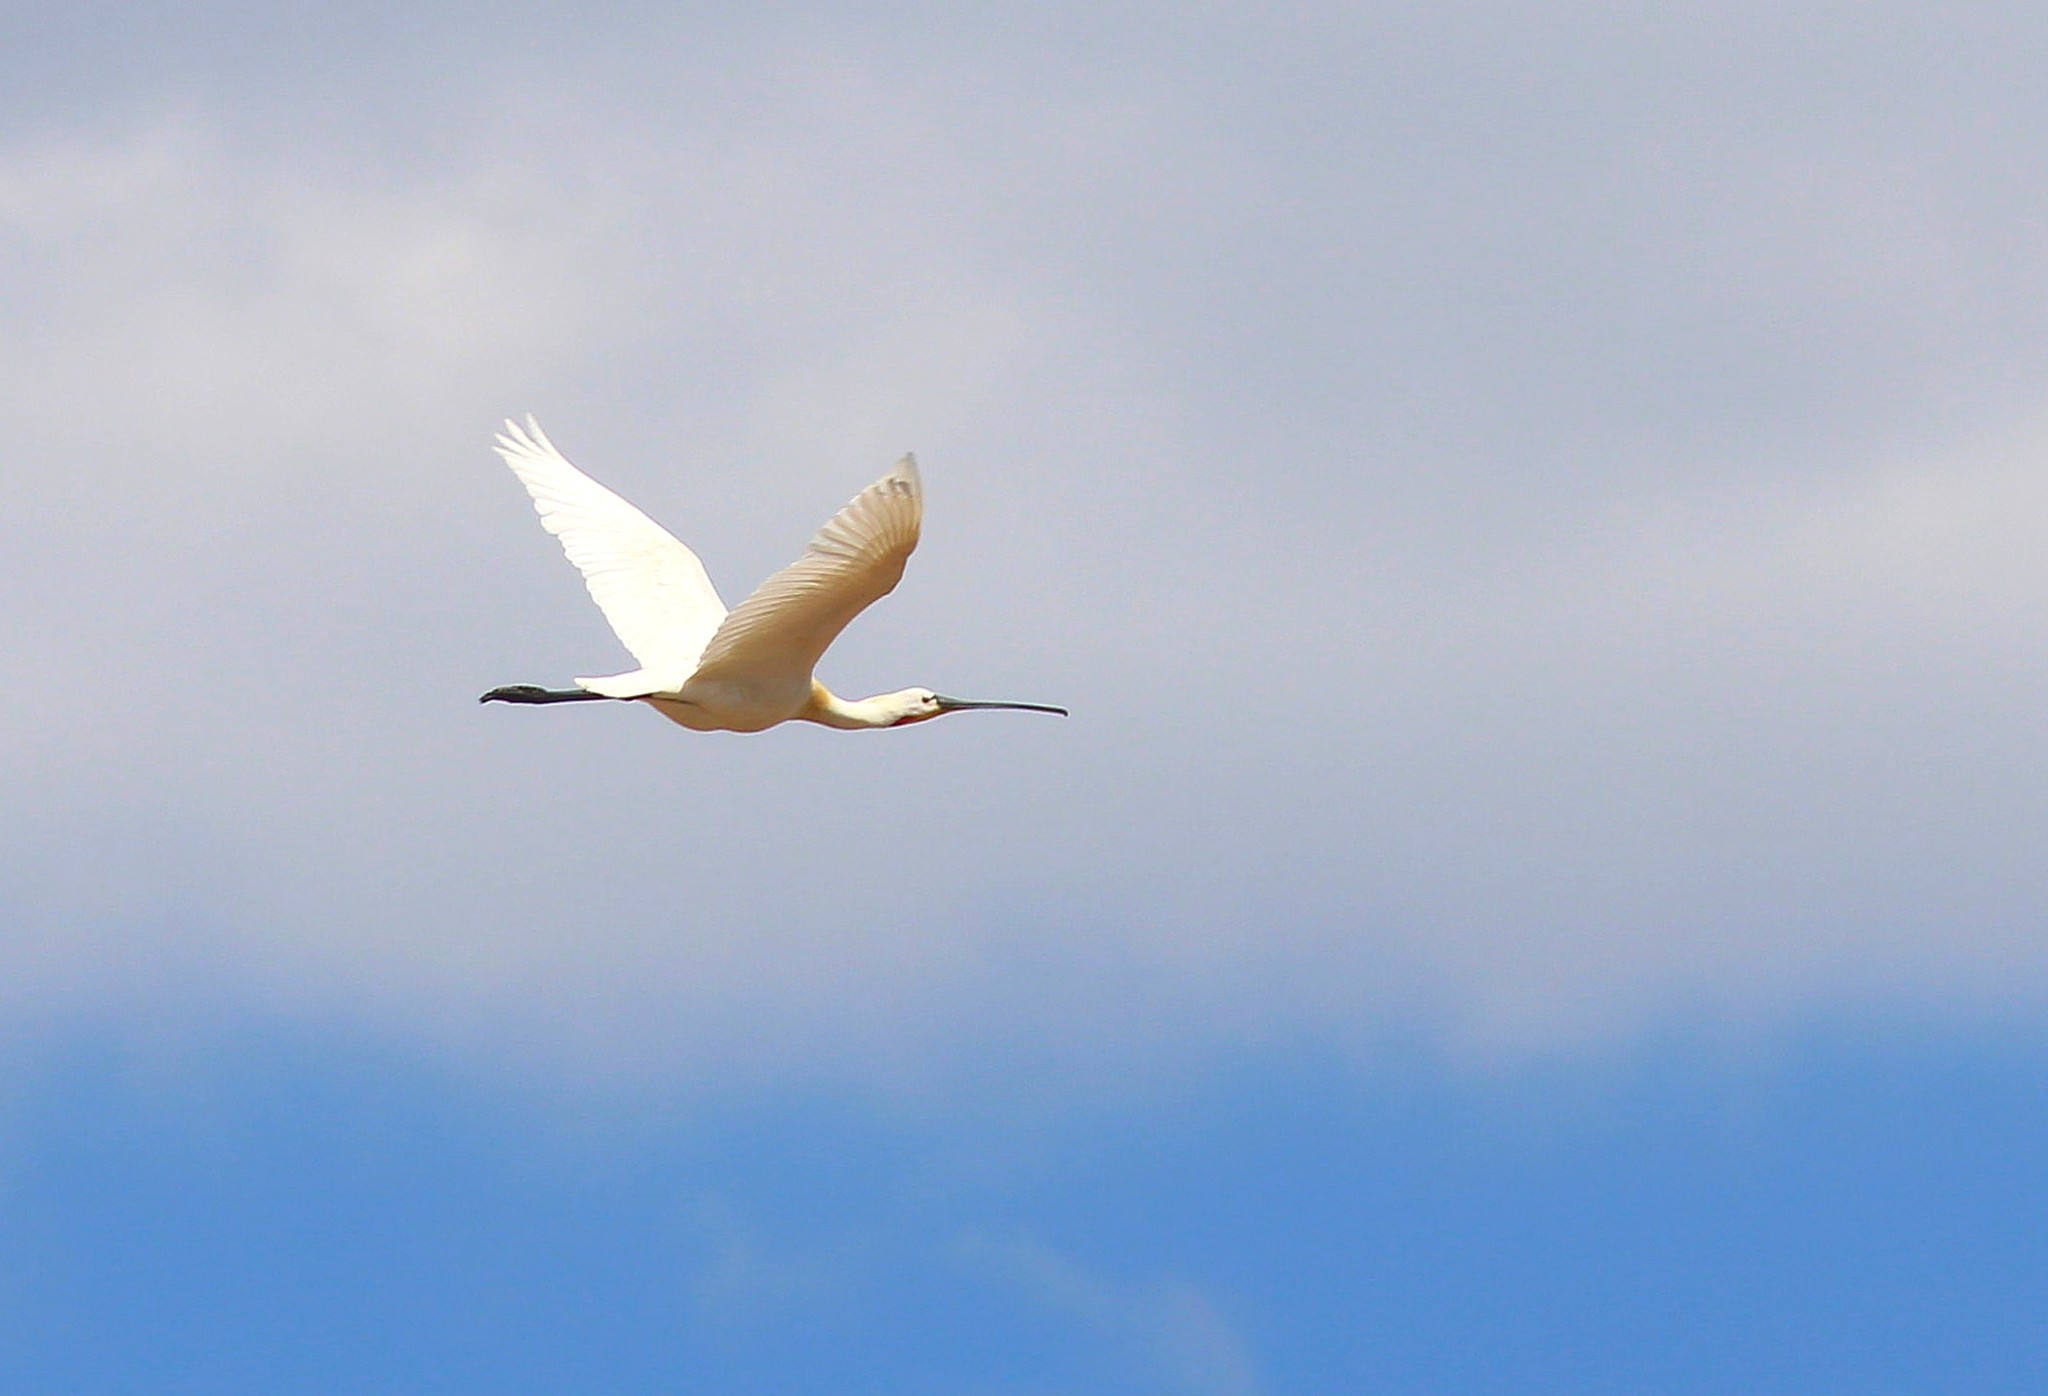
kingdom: Animalia
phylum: Chordata
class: Aves
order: Pelecaniformes
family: Threskiornithidae
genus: Platalea
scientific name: Platalea leucorodia
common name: Eurasian spoonbill
